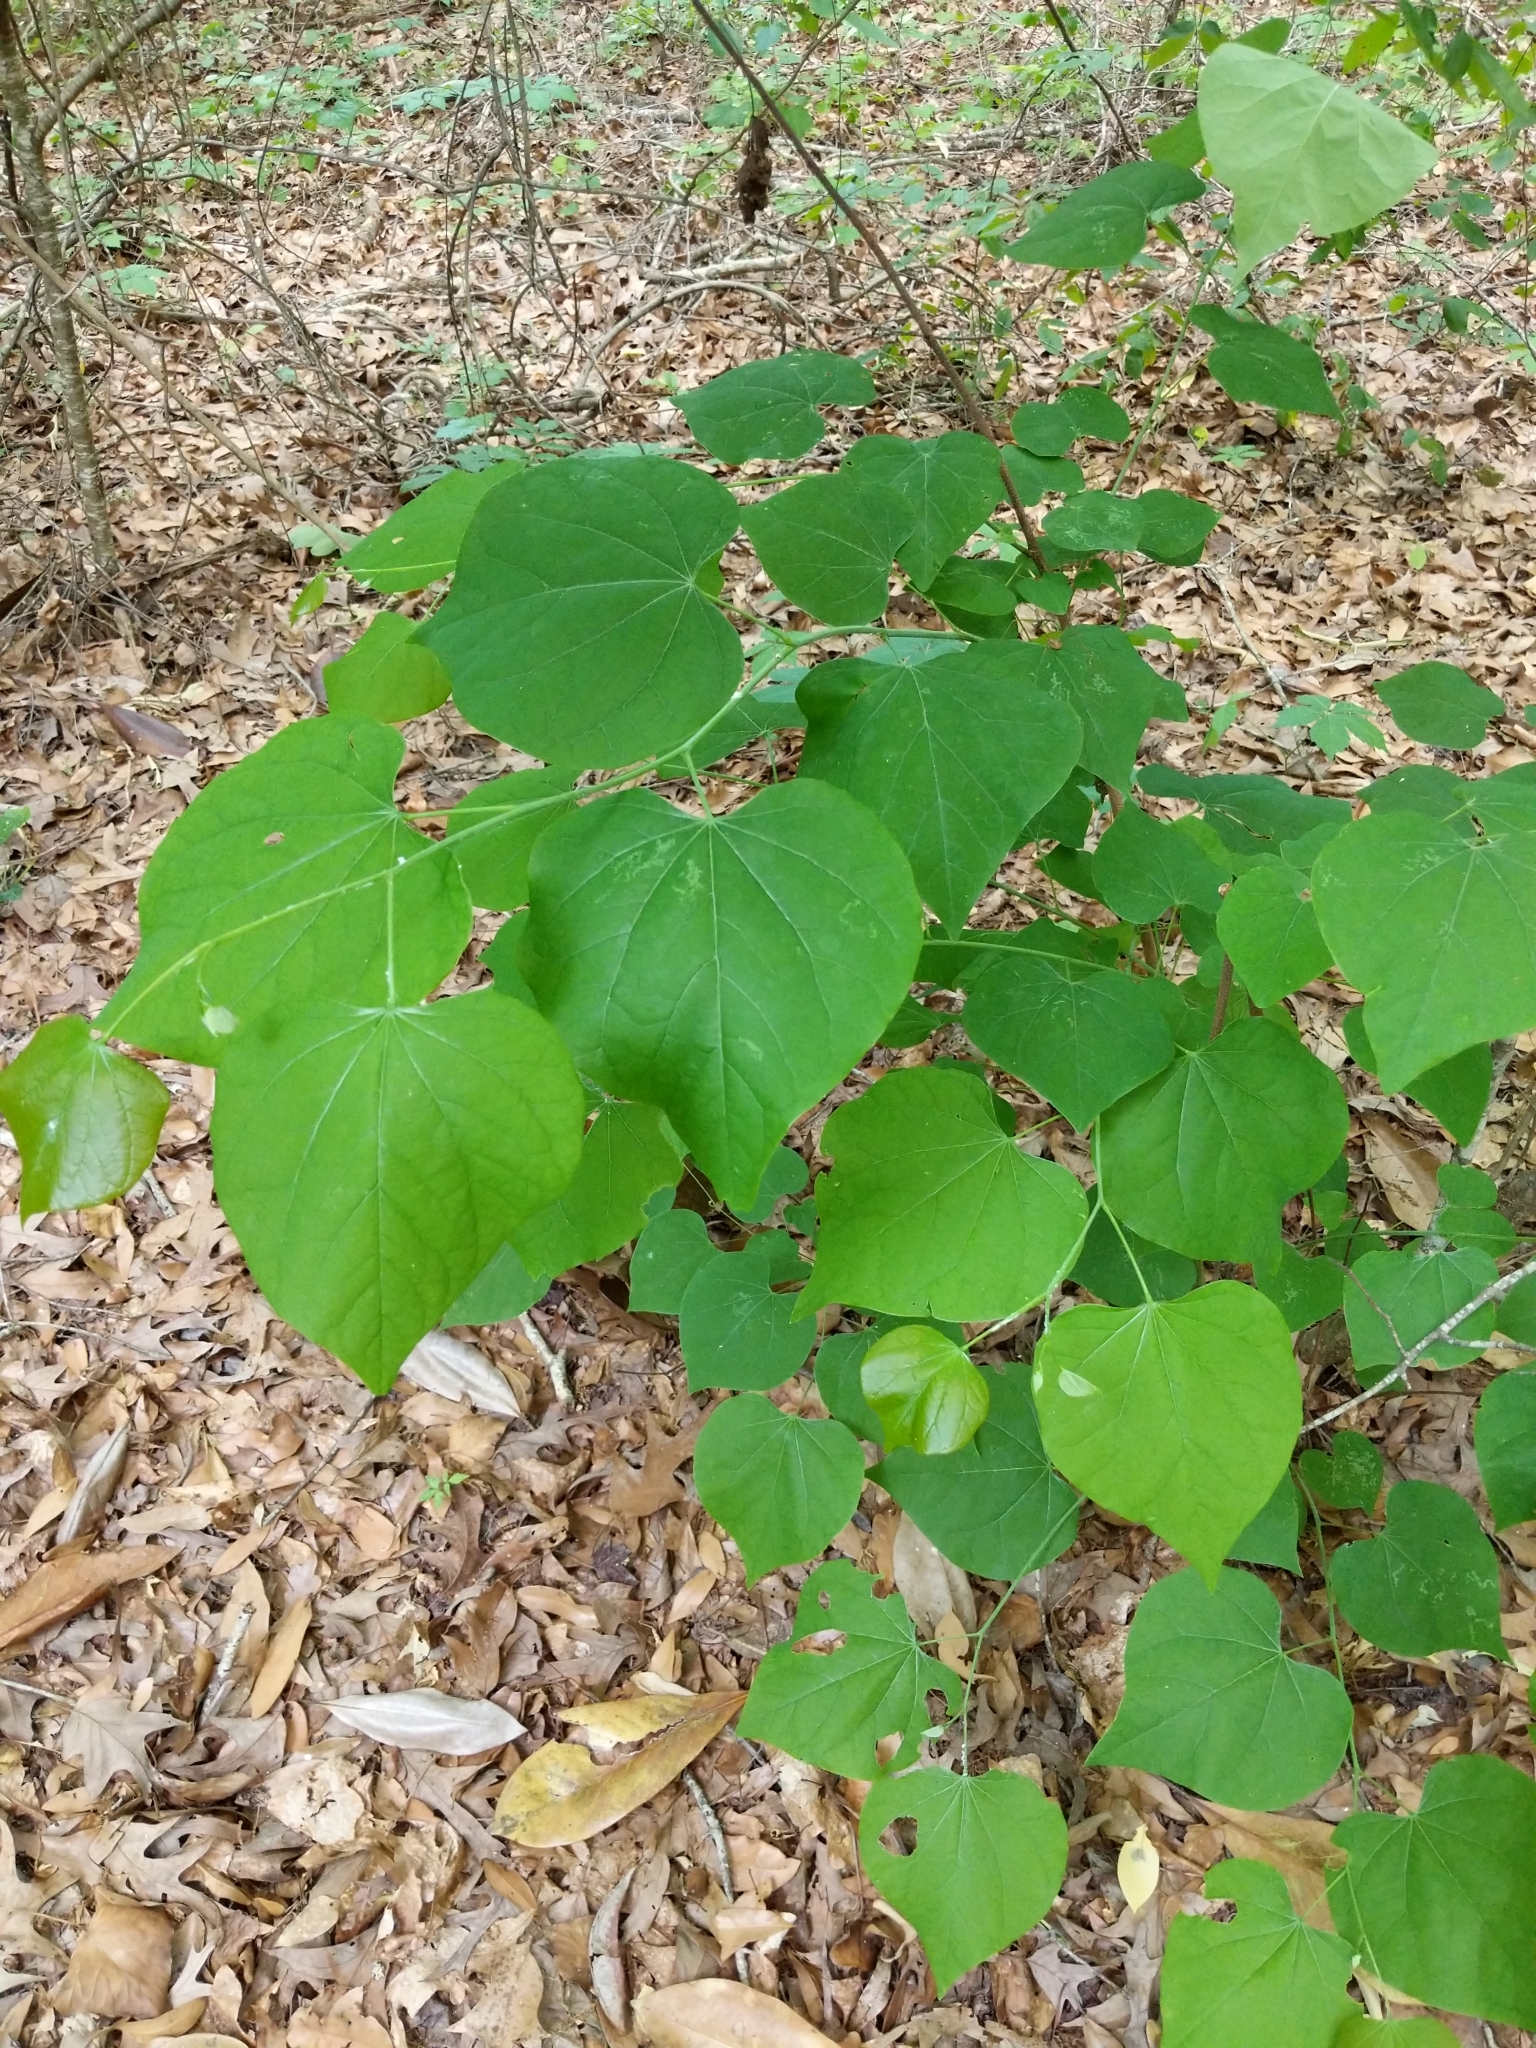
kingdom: Plantae
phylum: Tracheophyta
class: Magnoliopsida
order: Fabales
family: Fabaceae
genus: Cercis
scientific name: Cercis canadensis
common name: Eastern redbud
